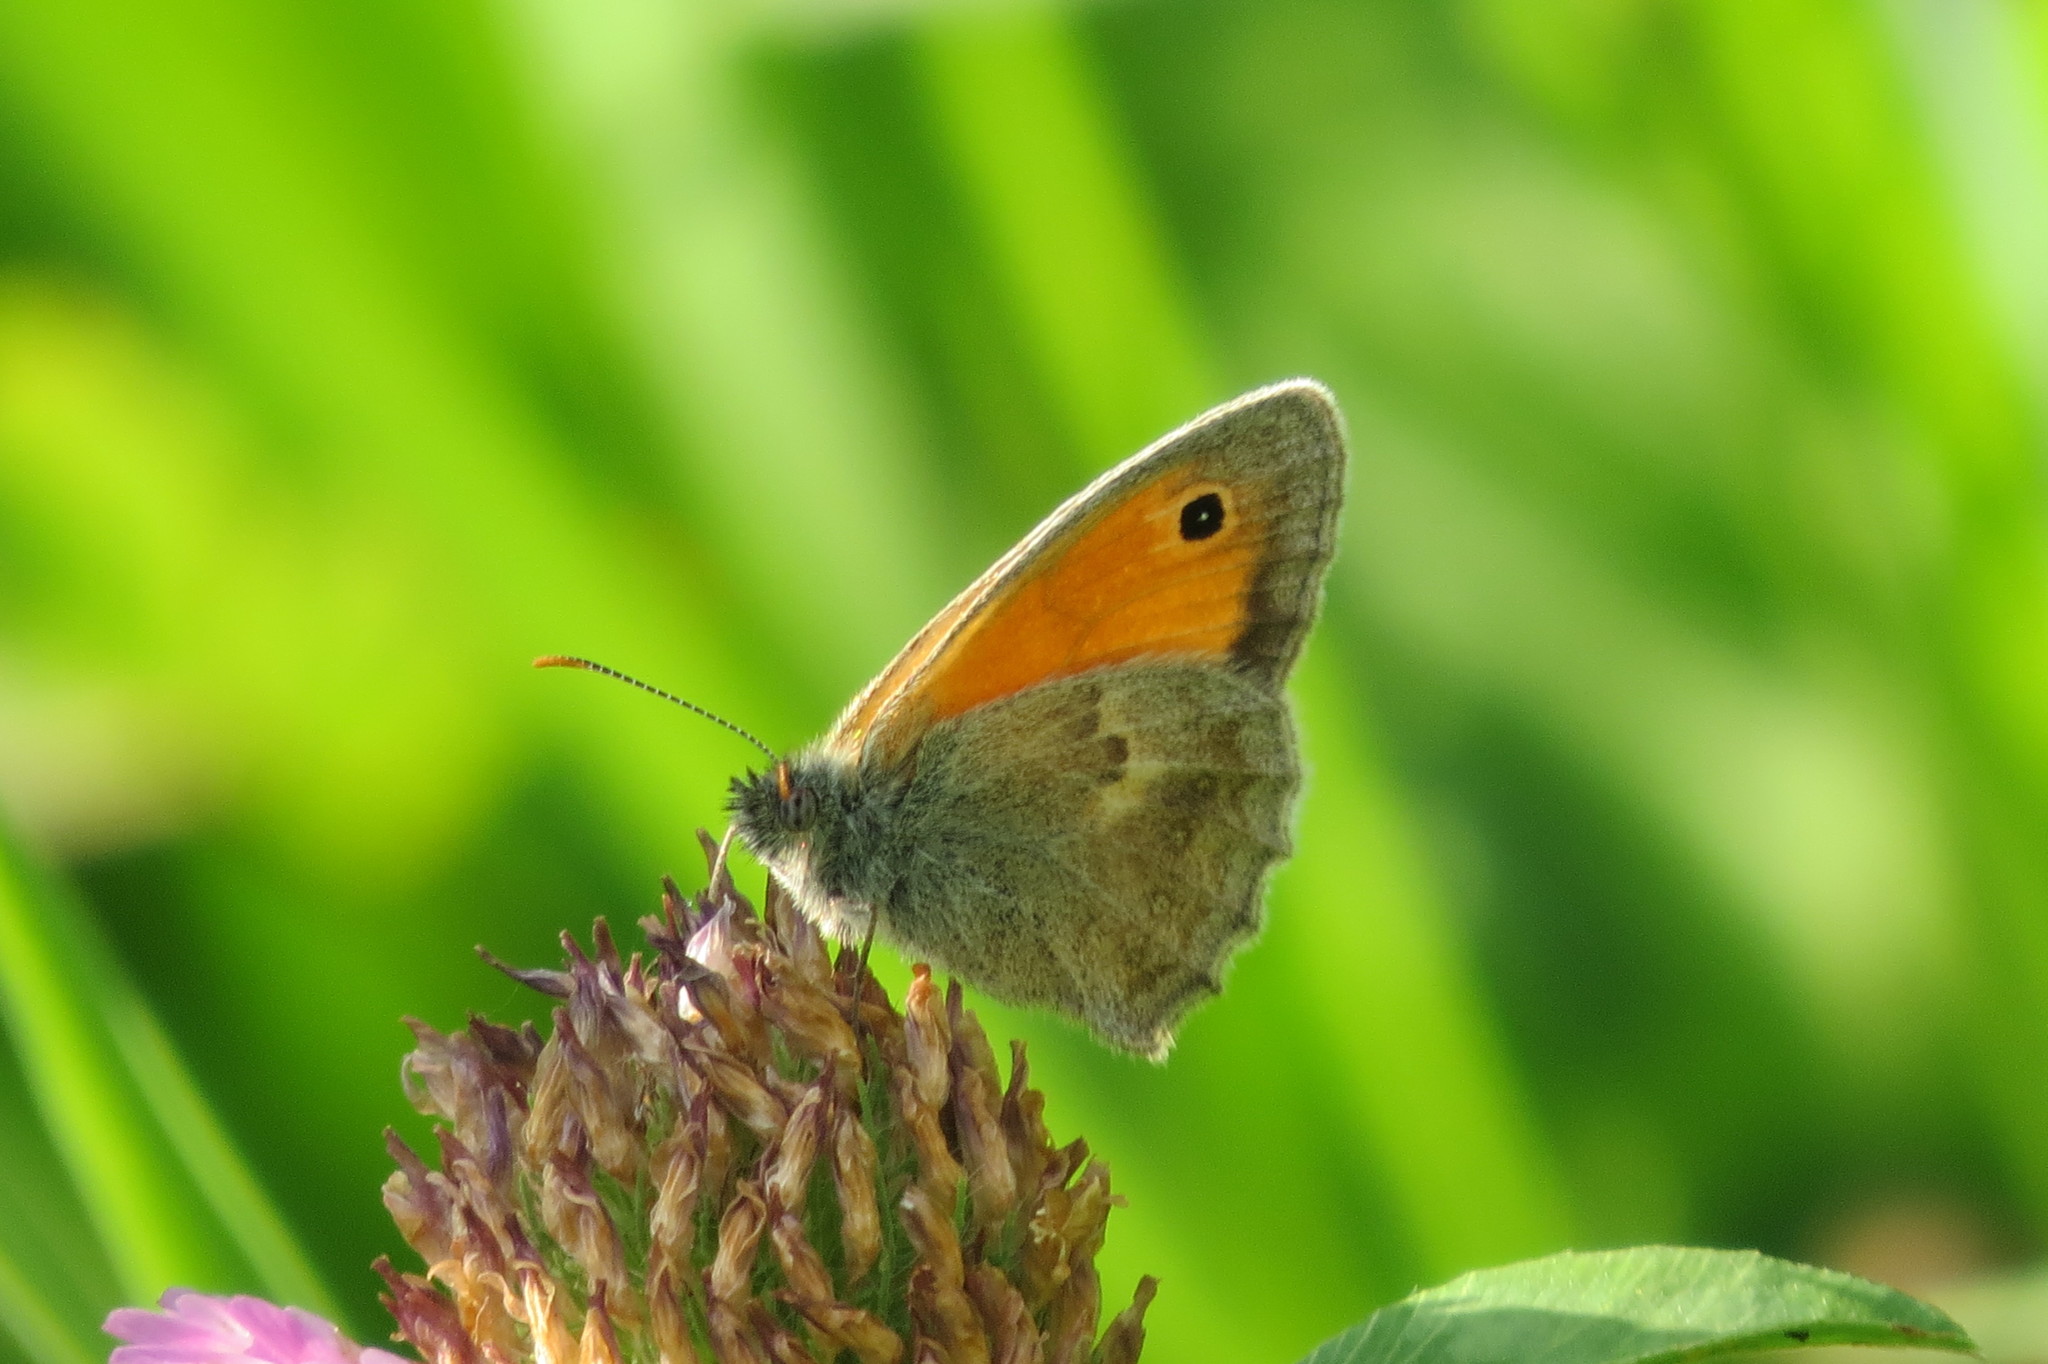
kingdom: Animalia
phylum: Arthropoda
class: Insecta
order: Lepidoptera
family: Nymphalidae
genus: Coenonympha
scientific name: Coenonympha pamphilus
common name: Small heath
